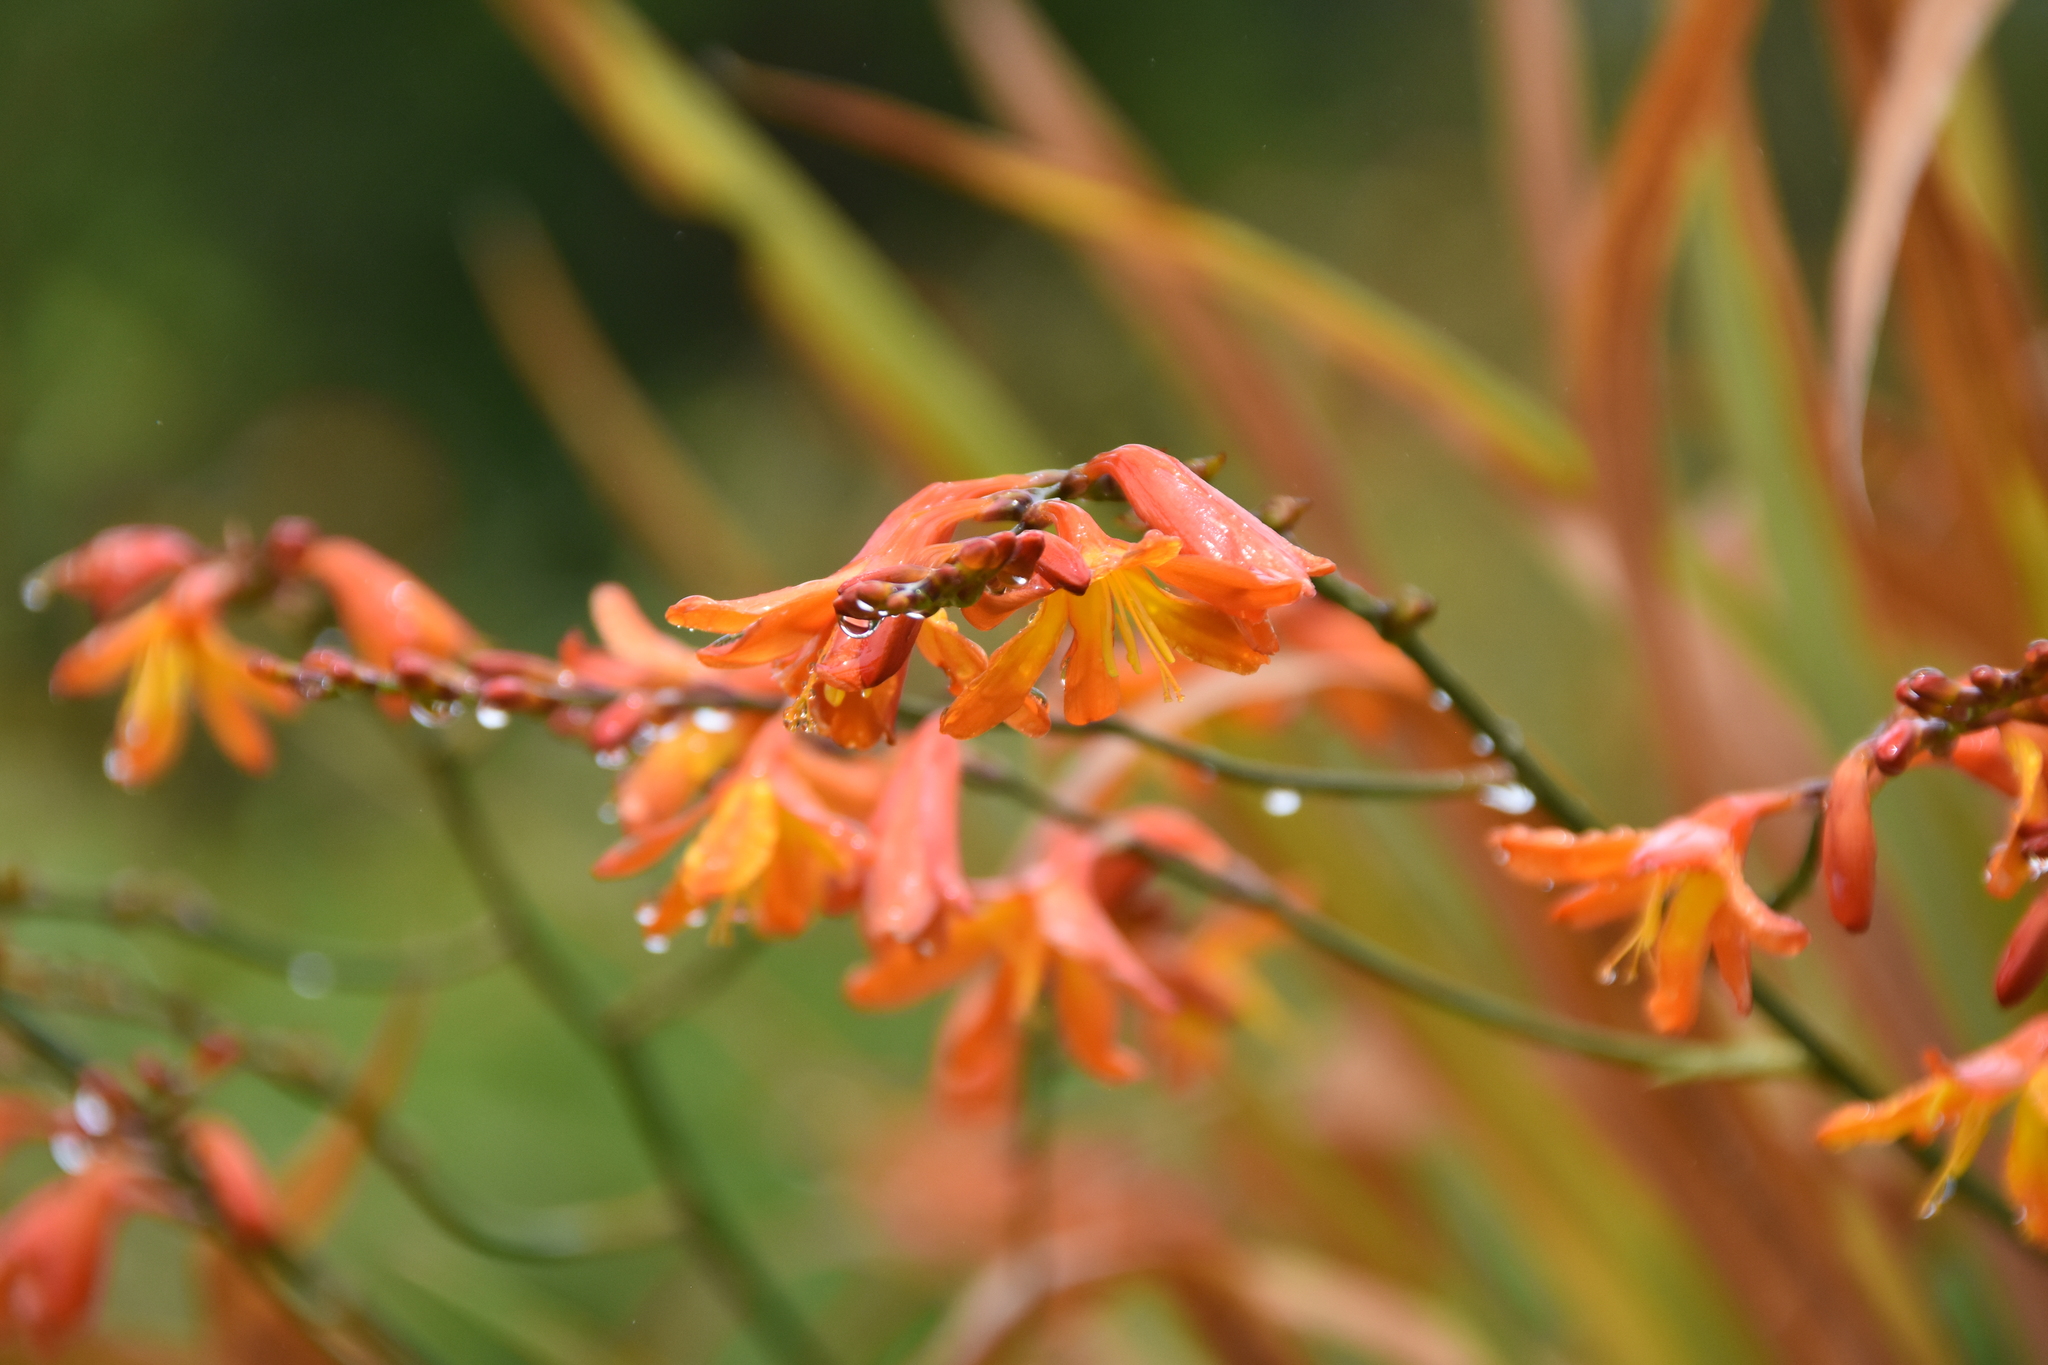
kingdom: Plantae
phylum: Tracheophyta
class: Liliopsida
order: Asparagales
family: Iridaceae
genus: Crocosmia
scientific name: Crocosmia crocosmiiflora
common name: Montbretia
